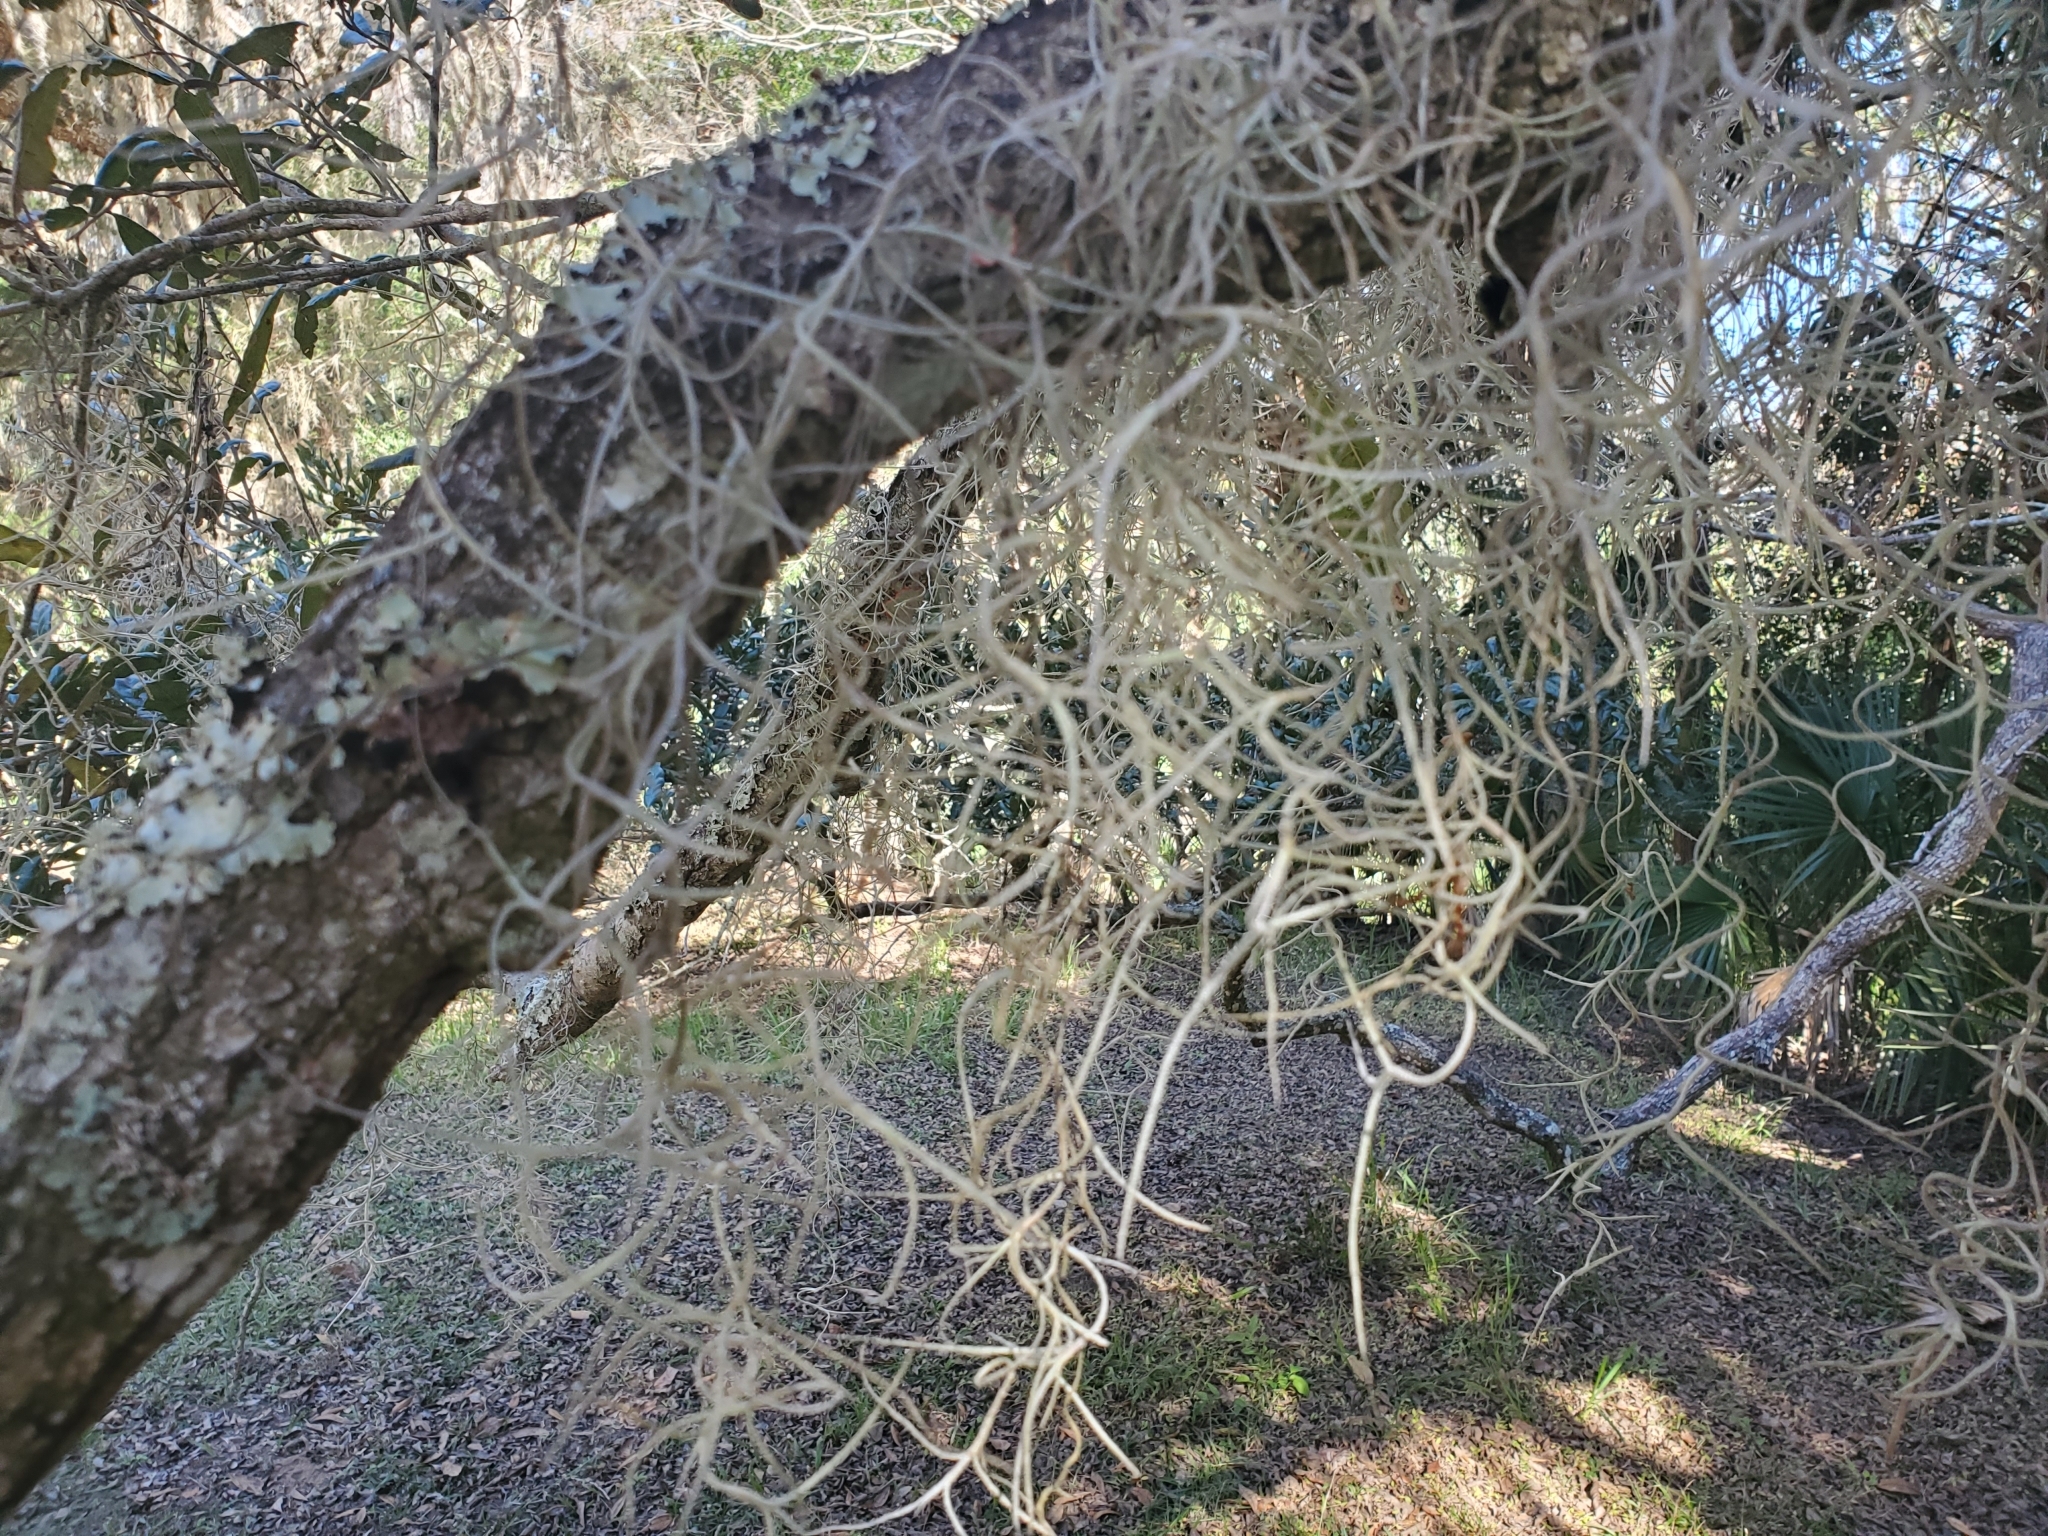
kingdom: Plantae
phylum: Tracheophyta
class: Liliopsida
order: Poales
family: Bromeliaceae
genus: Tillandsia
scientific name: Tillandsia usneoides
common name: Spanish moss
